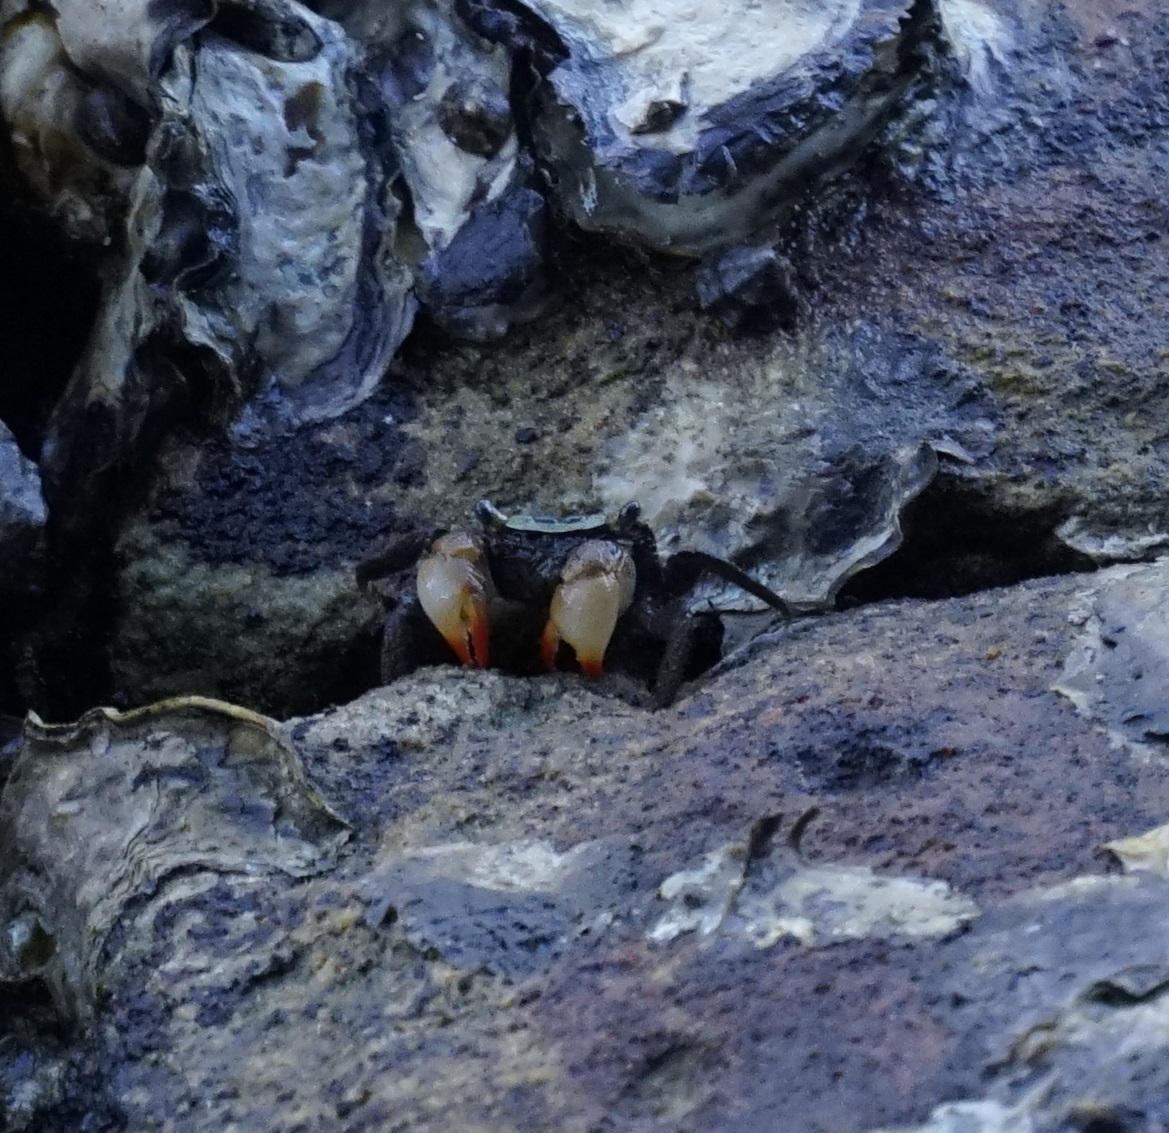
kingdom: Animalia
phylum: Arthropoda
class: Malacostraca
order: Decapoda
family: Sesarmidae
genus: Parasesarma
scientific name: Parasesarma erythodactylum
